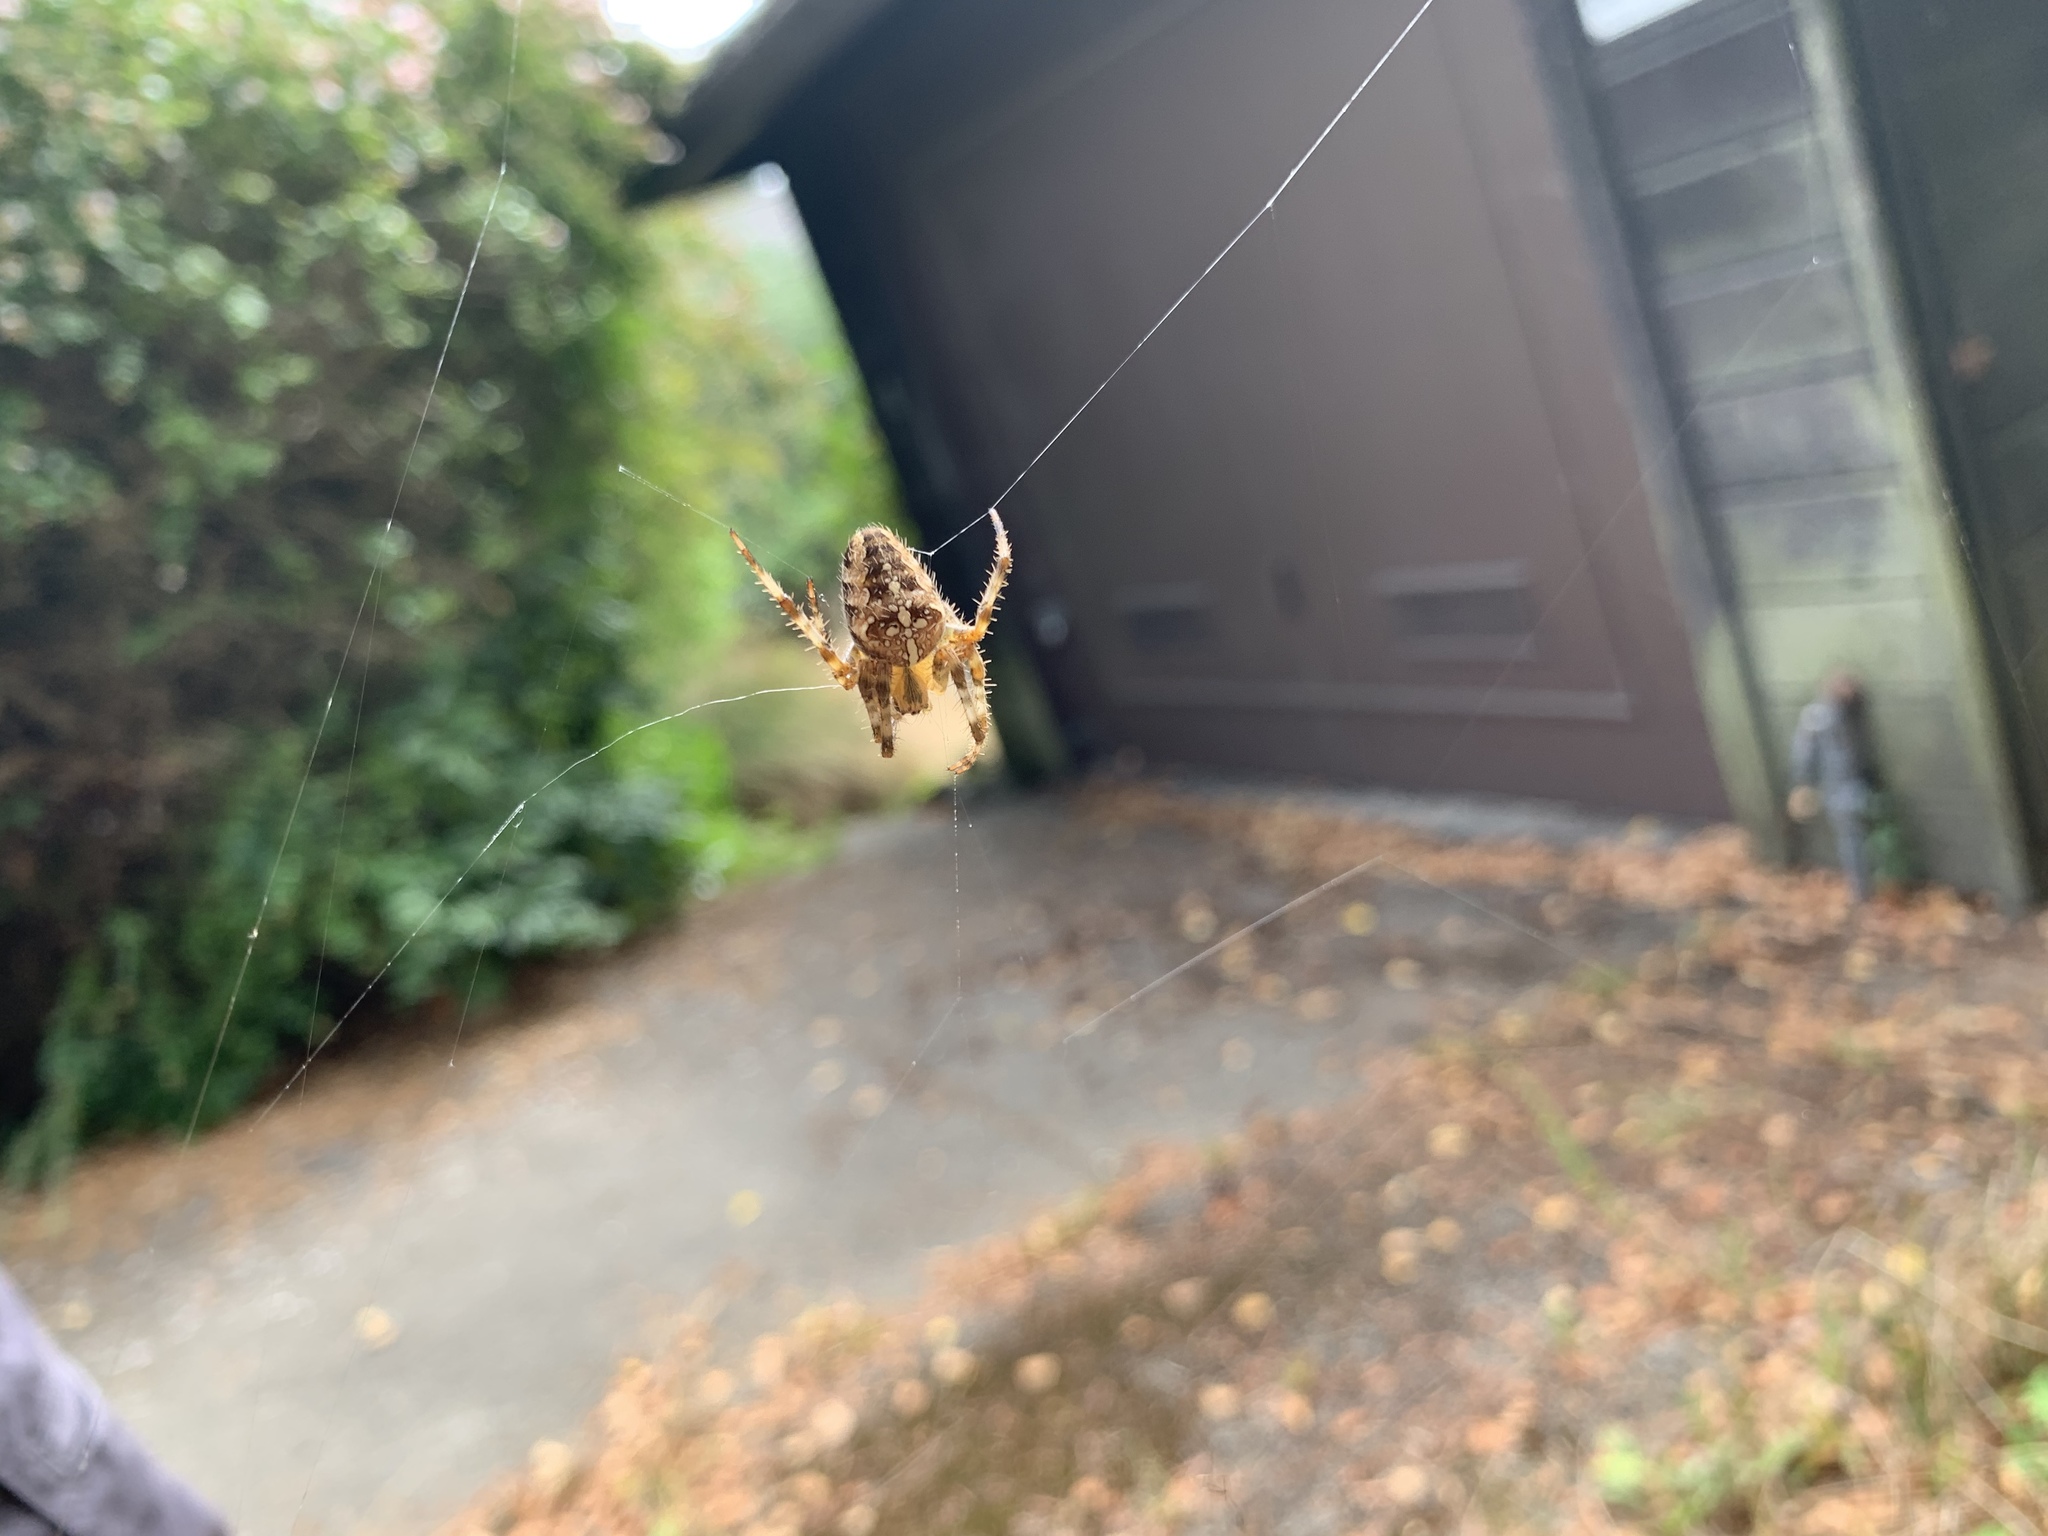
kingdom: Animalia
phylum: Arthropoda
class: Arachnida
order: Araneae
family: Araneidae
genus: Araneus
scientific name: Araneus diadematus
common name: Cross orbweaver
